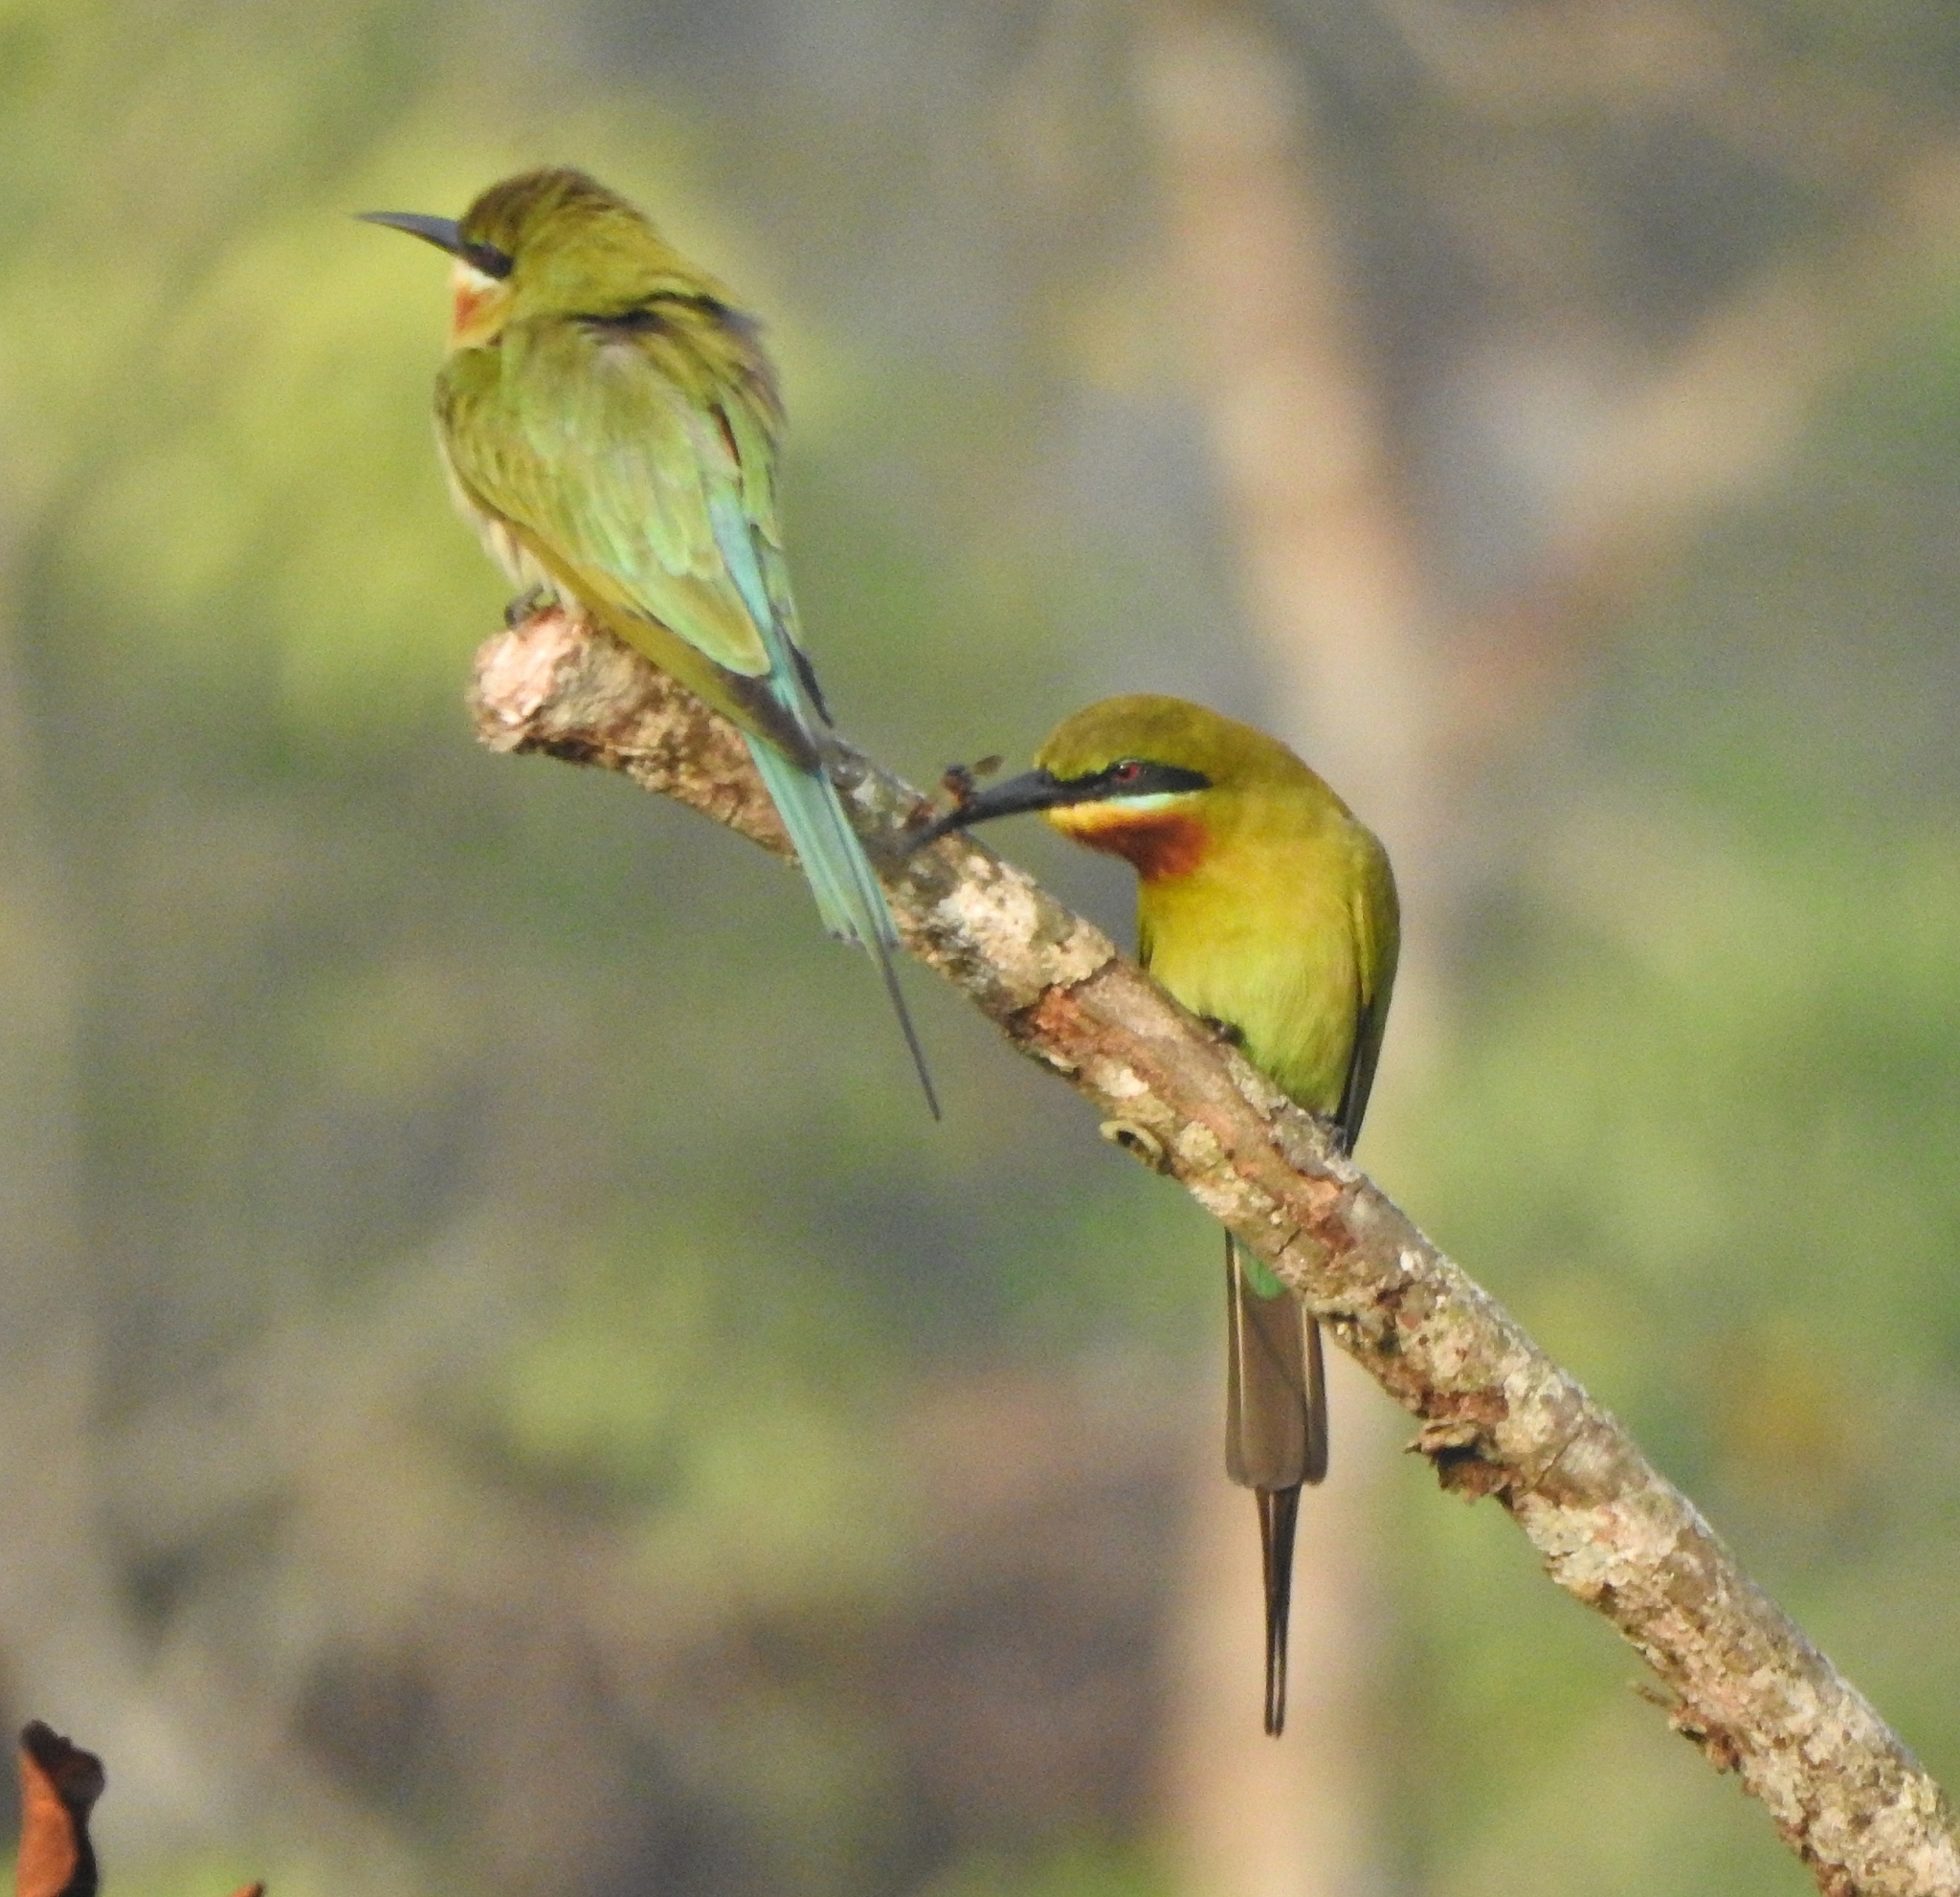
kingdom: Animalia
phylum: Chordata
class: Aves
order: Coraciiformes
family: Meropidae
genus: Merops
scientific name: Merops philippinus
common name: Blue-tailed bee-eater
